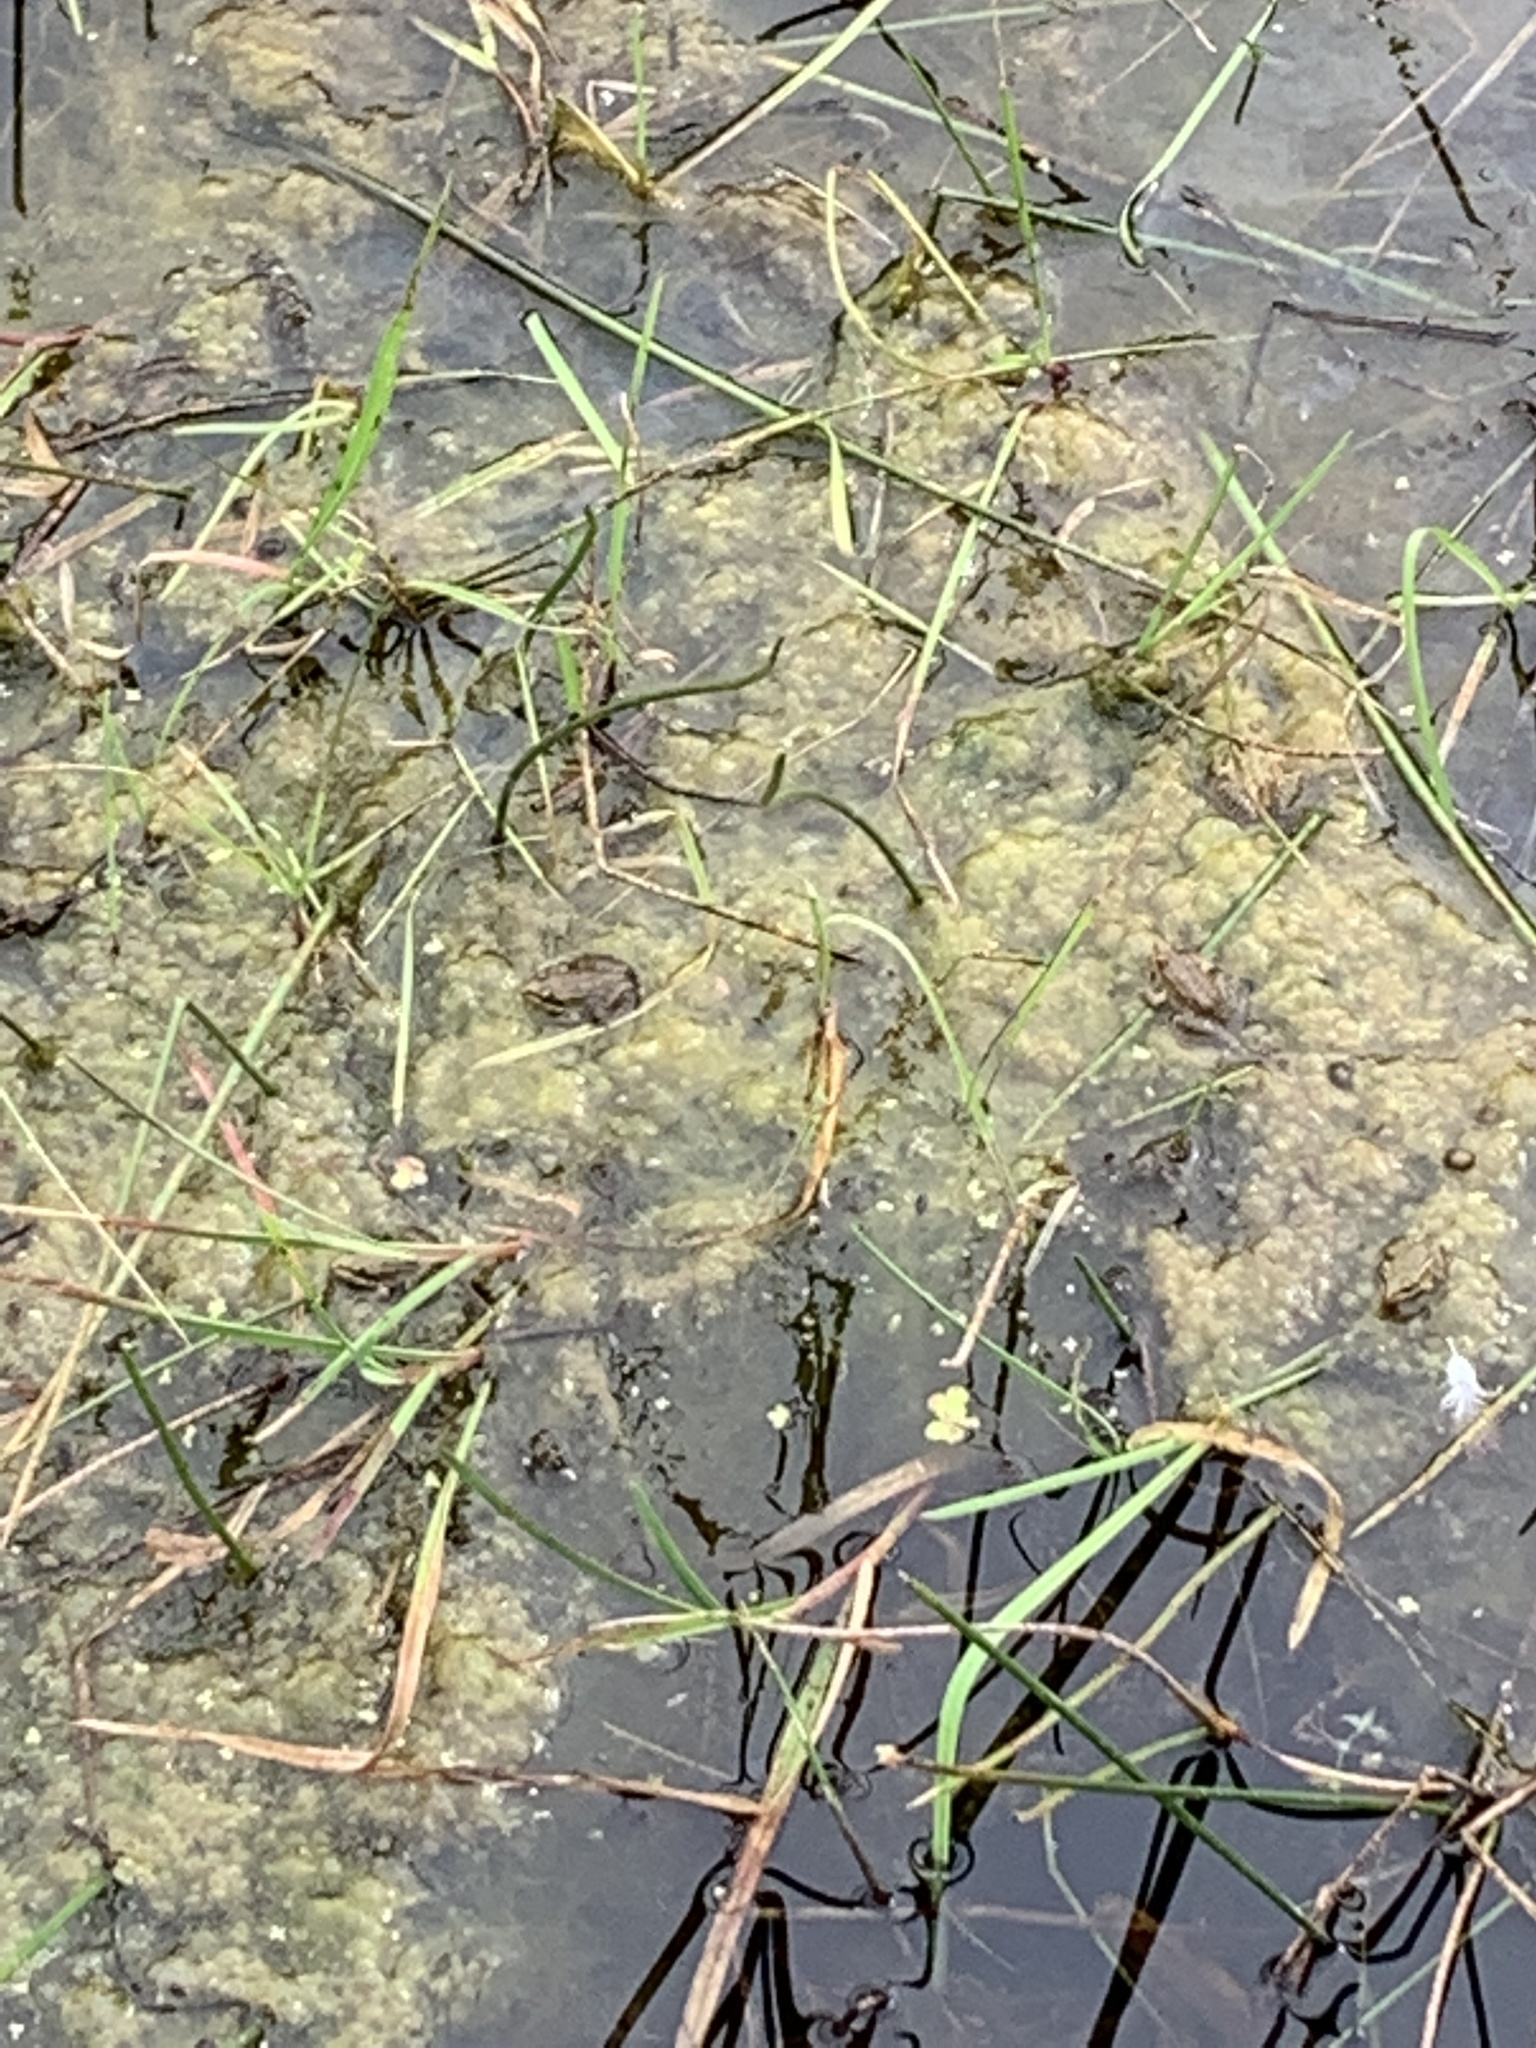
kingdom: Animalia
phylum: Chordata
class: Amphibia
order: Anura
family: Ranidae
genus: Rana
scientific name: Rana temporaria
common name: Common frog
